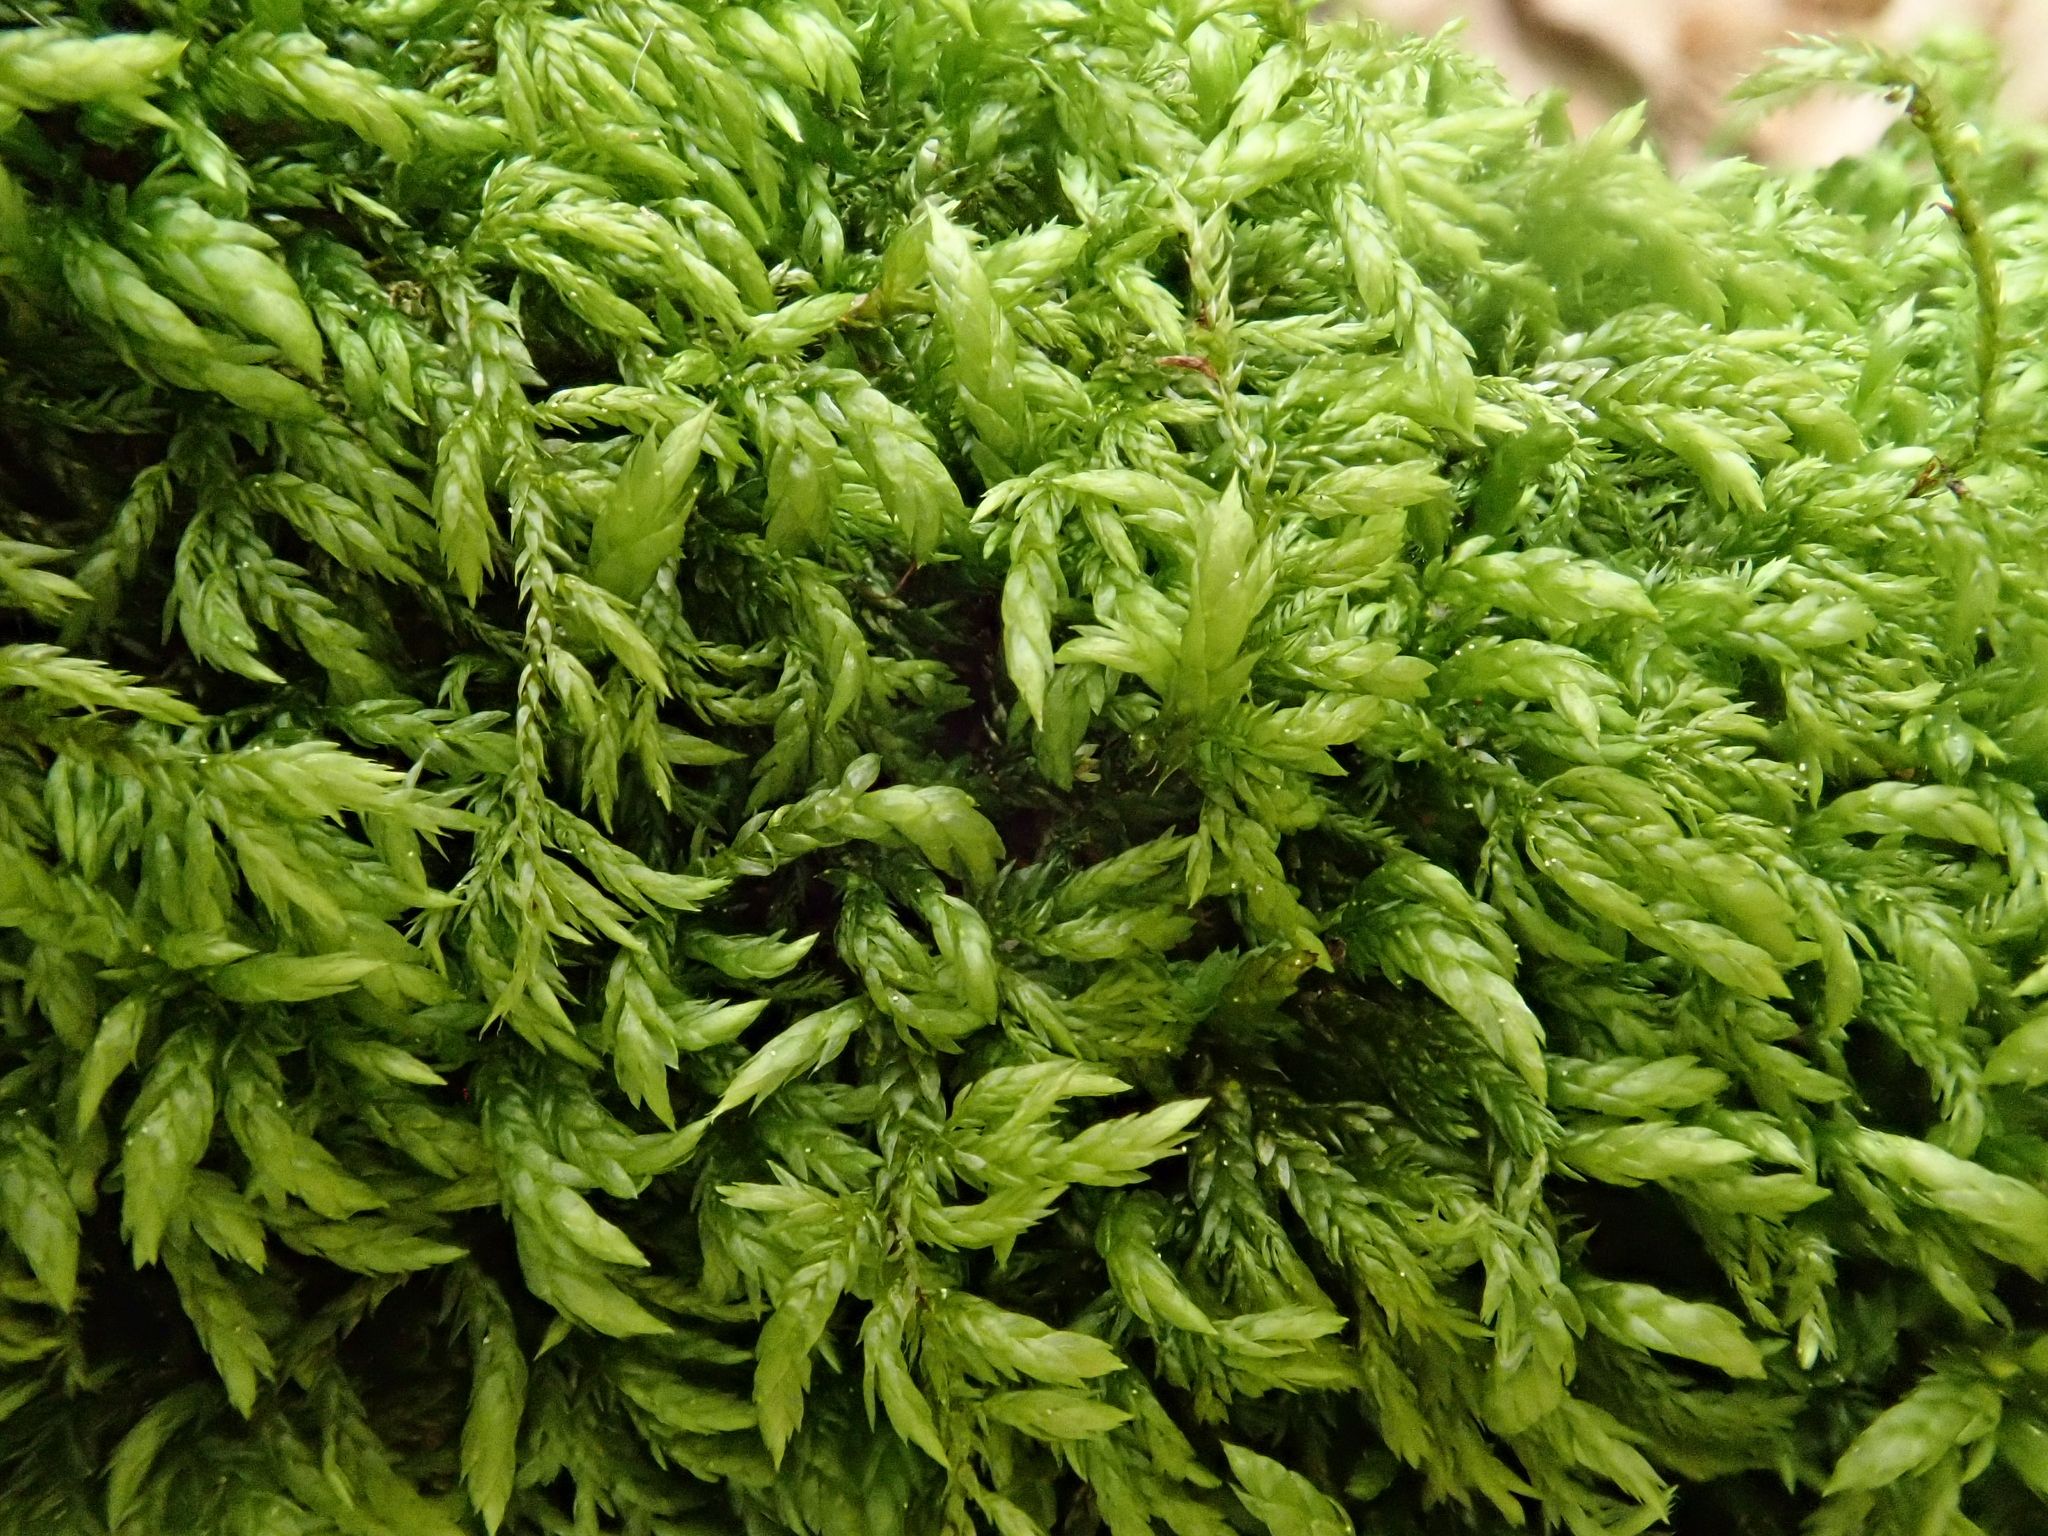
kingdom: Plantae
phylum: Bryophyta
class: Bryopsida
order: Hypnales
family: Lembophyllaceae
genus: Isothecium
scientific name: Isothecium alopecuroides
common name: Larger mouse-tail moss
